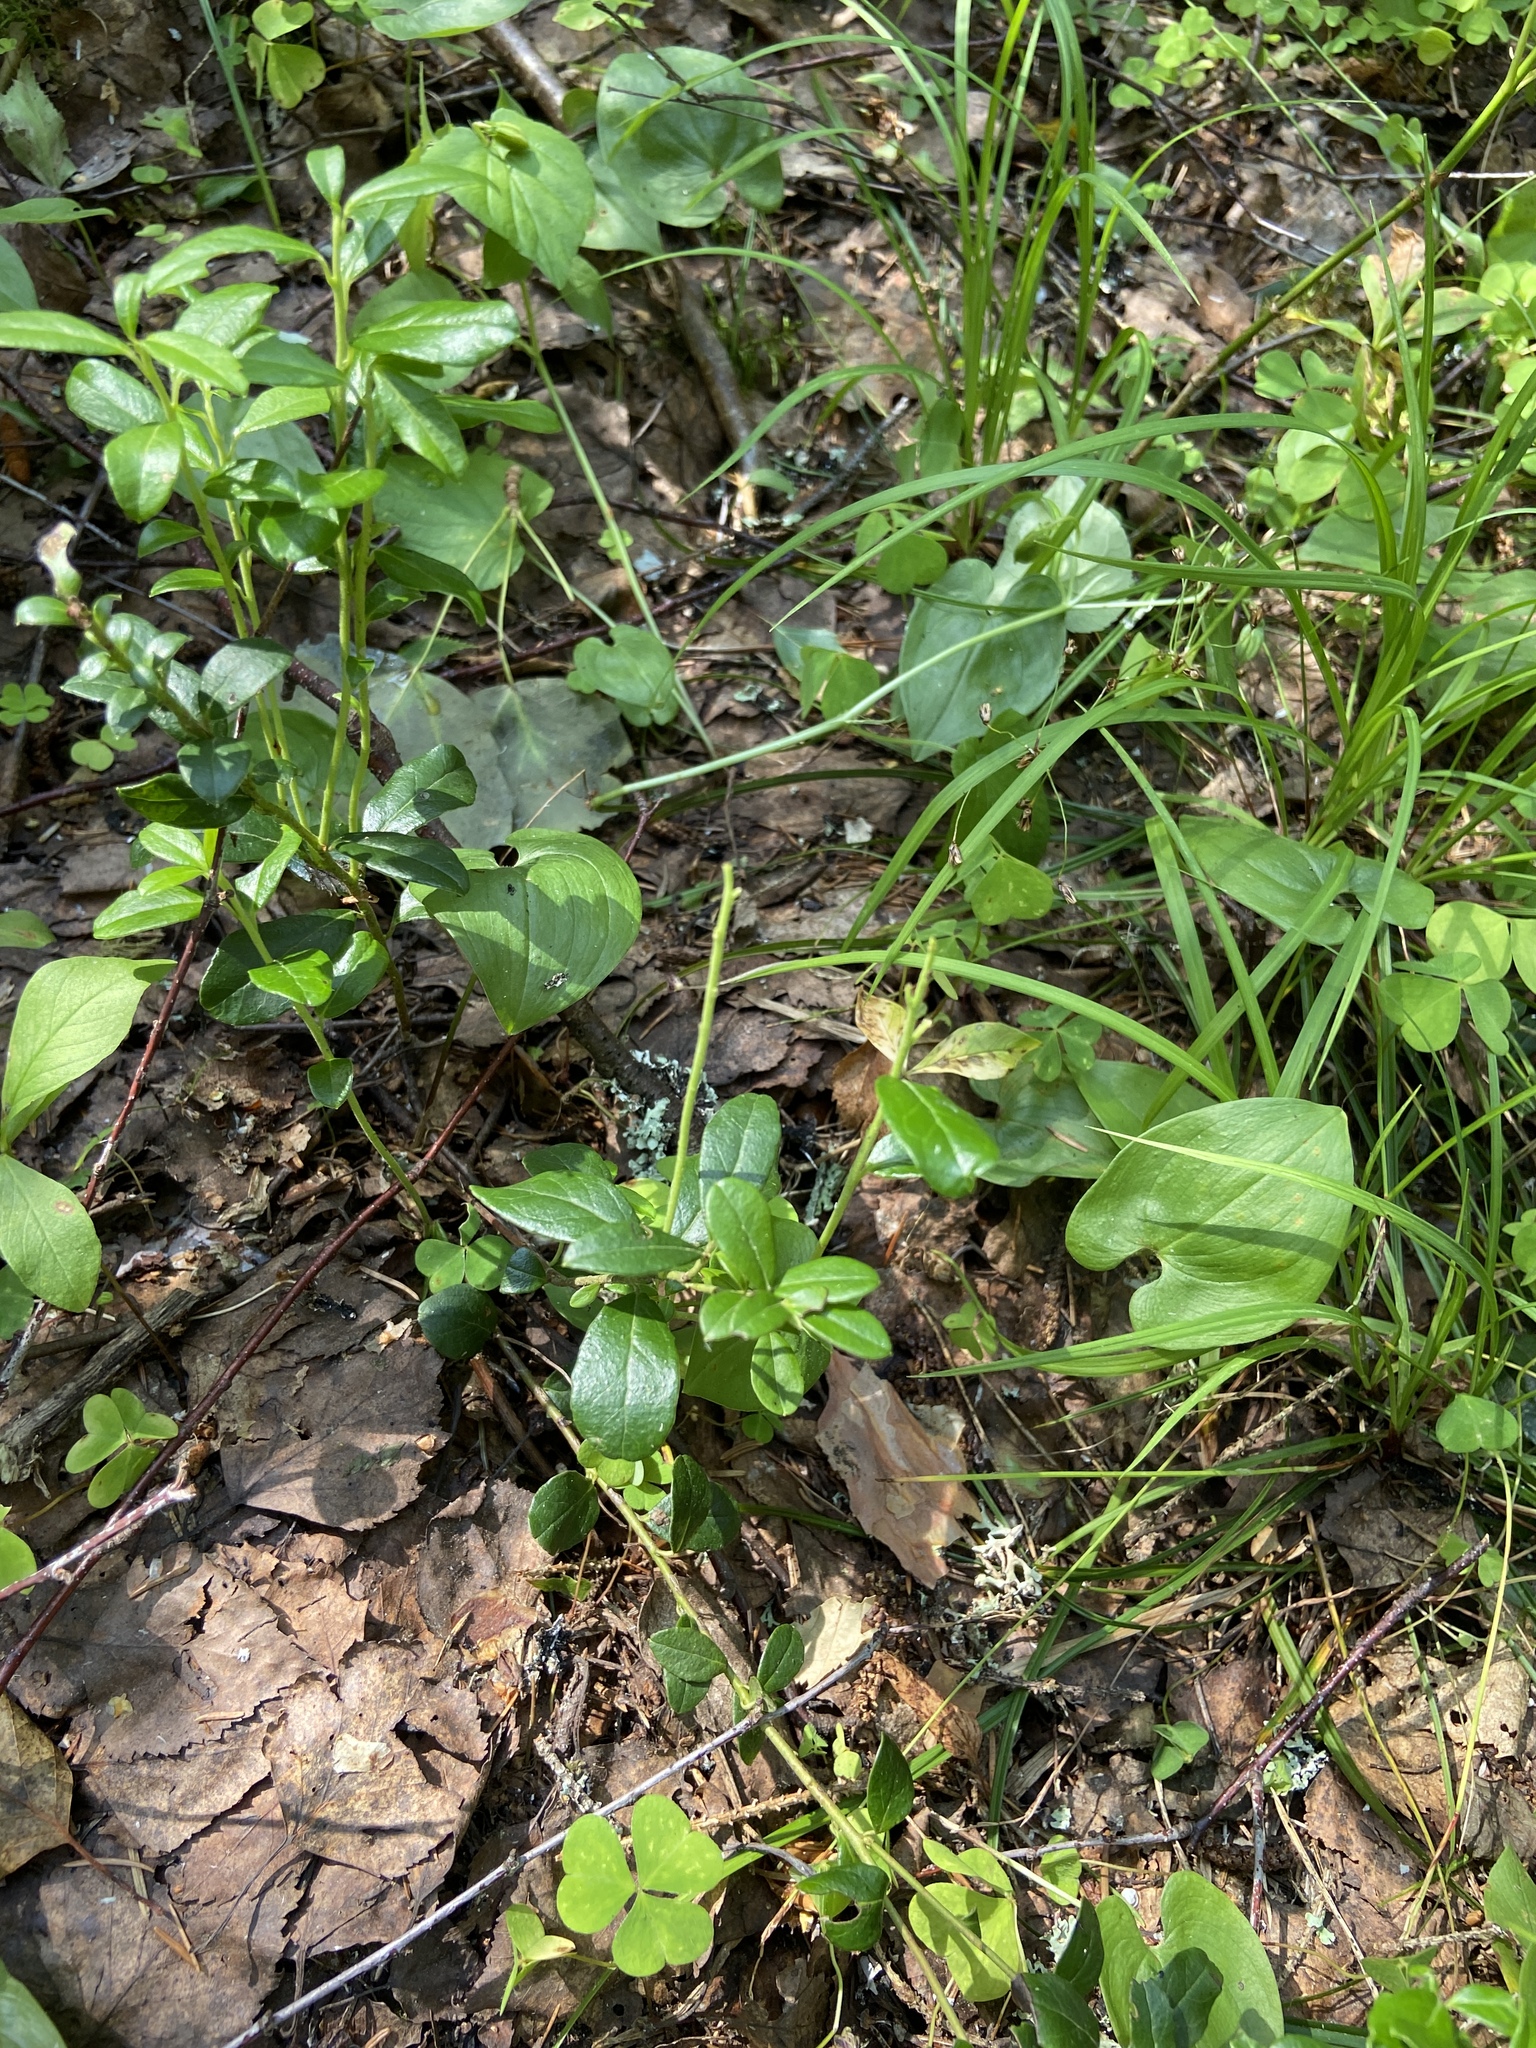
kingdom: Plantae
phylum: Tracheophyta
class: Magnoliopsida
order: Ericales
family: Ericaceae
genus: Vaccinium
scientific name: Vaccinium vitis-idaea
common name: Cowberry
